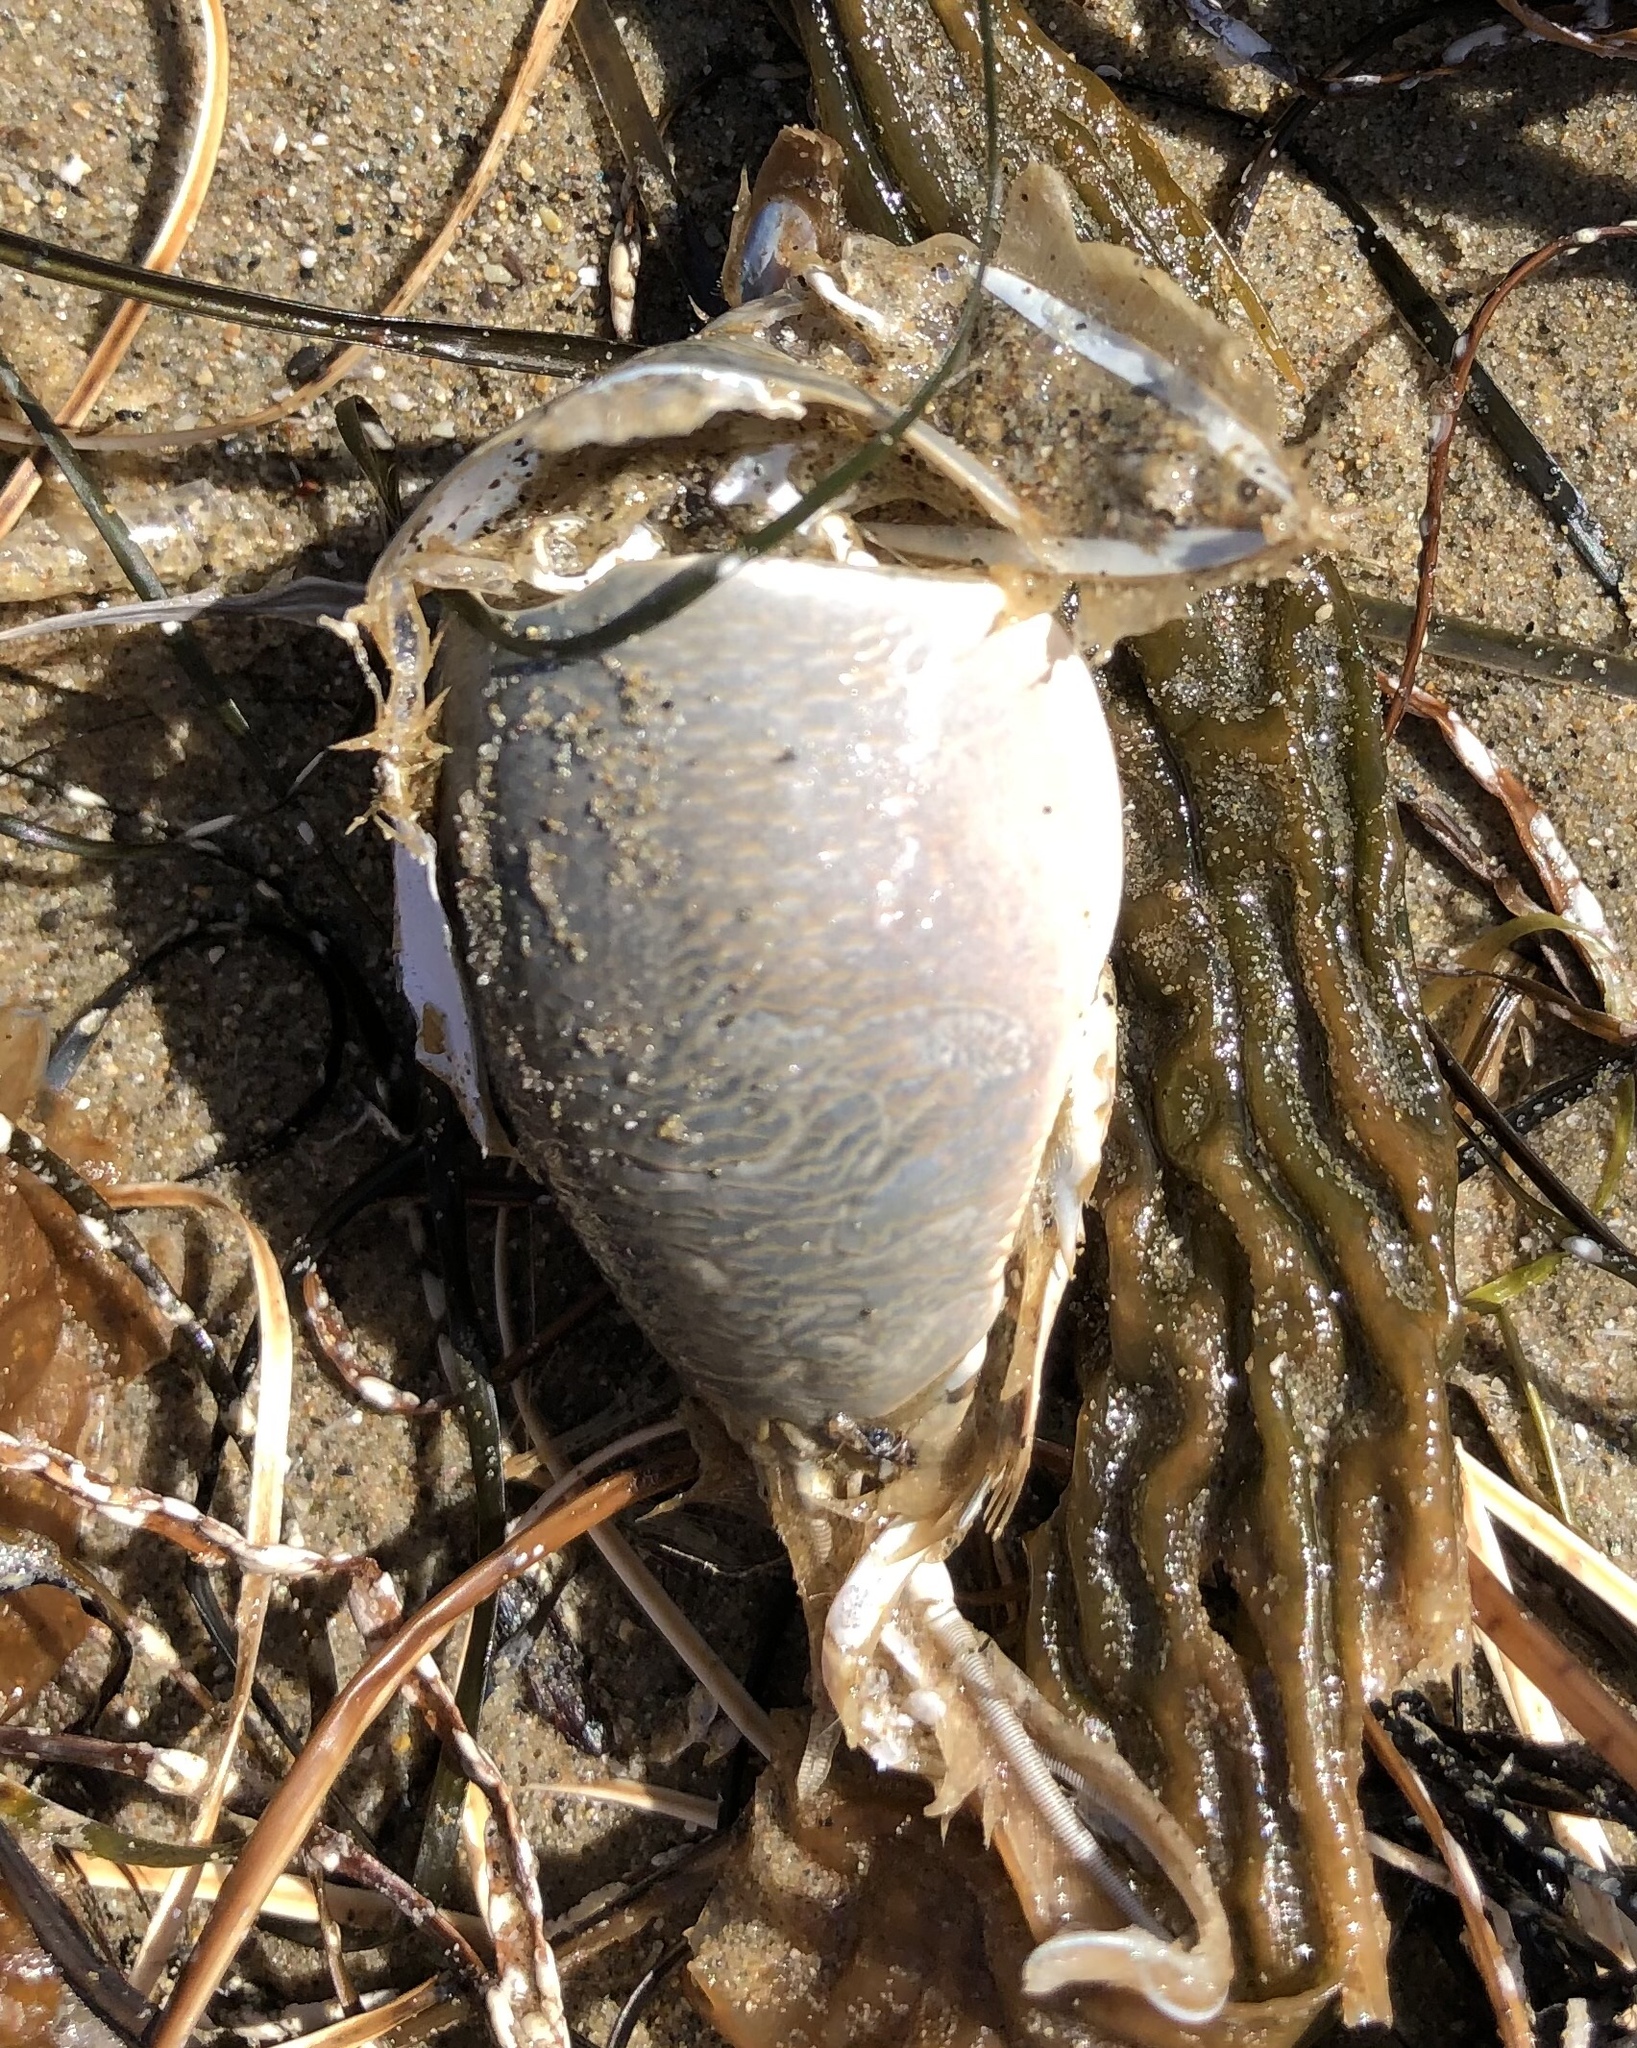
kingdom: Animalia
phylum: Arthropoda
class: Malacostraca
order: Decapoda
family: Hippidae
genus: Emerita
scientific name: Emerita analoga
